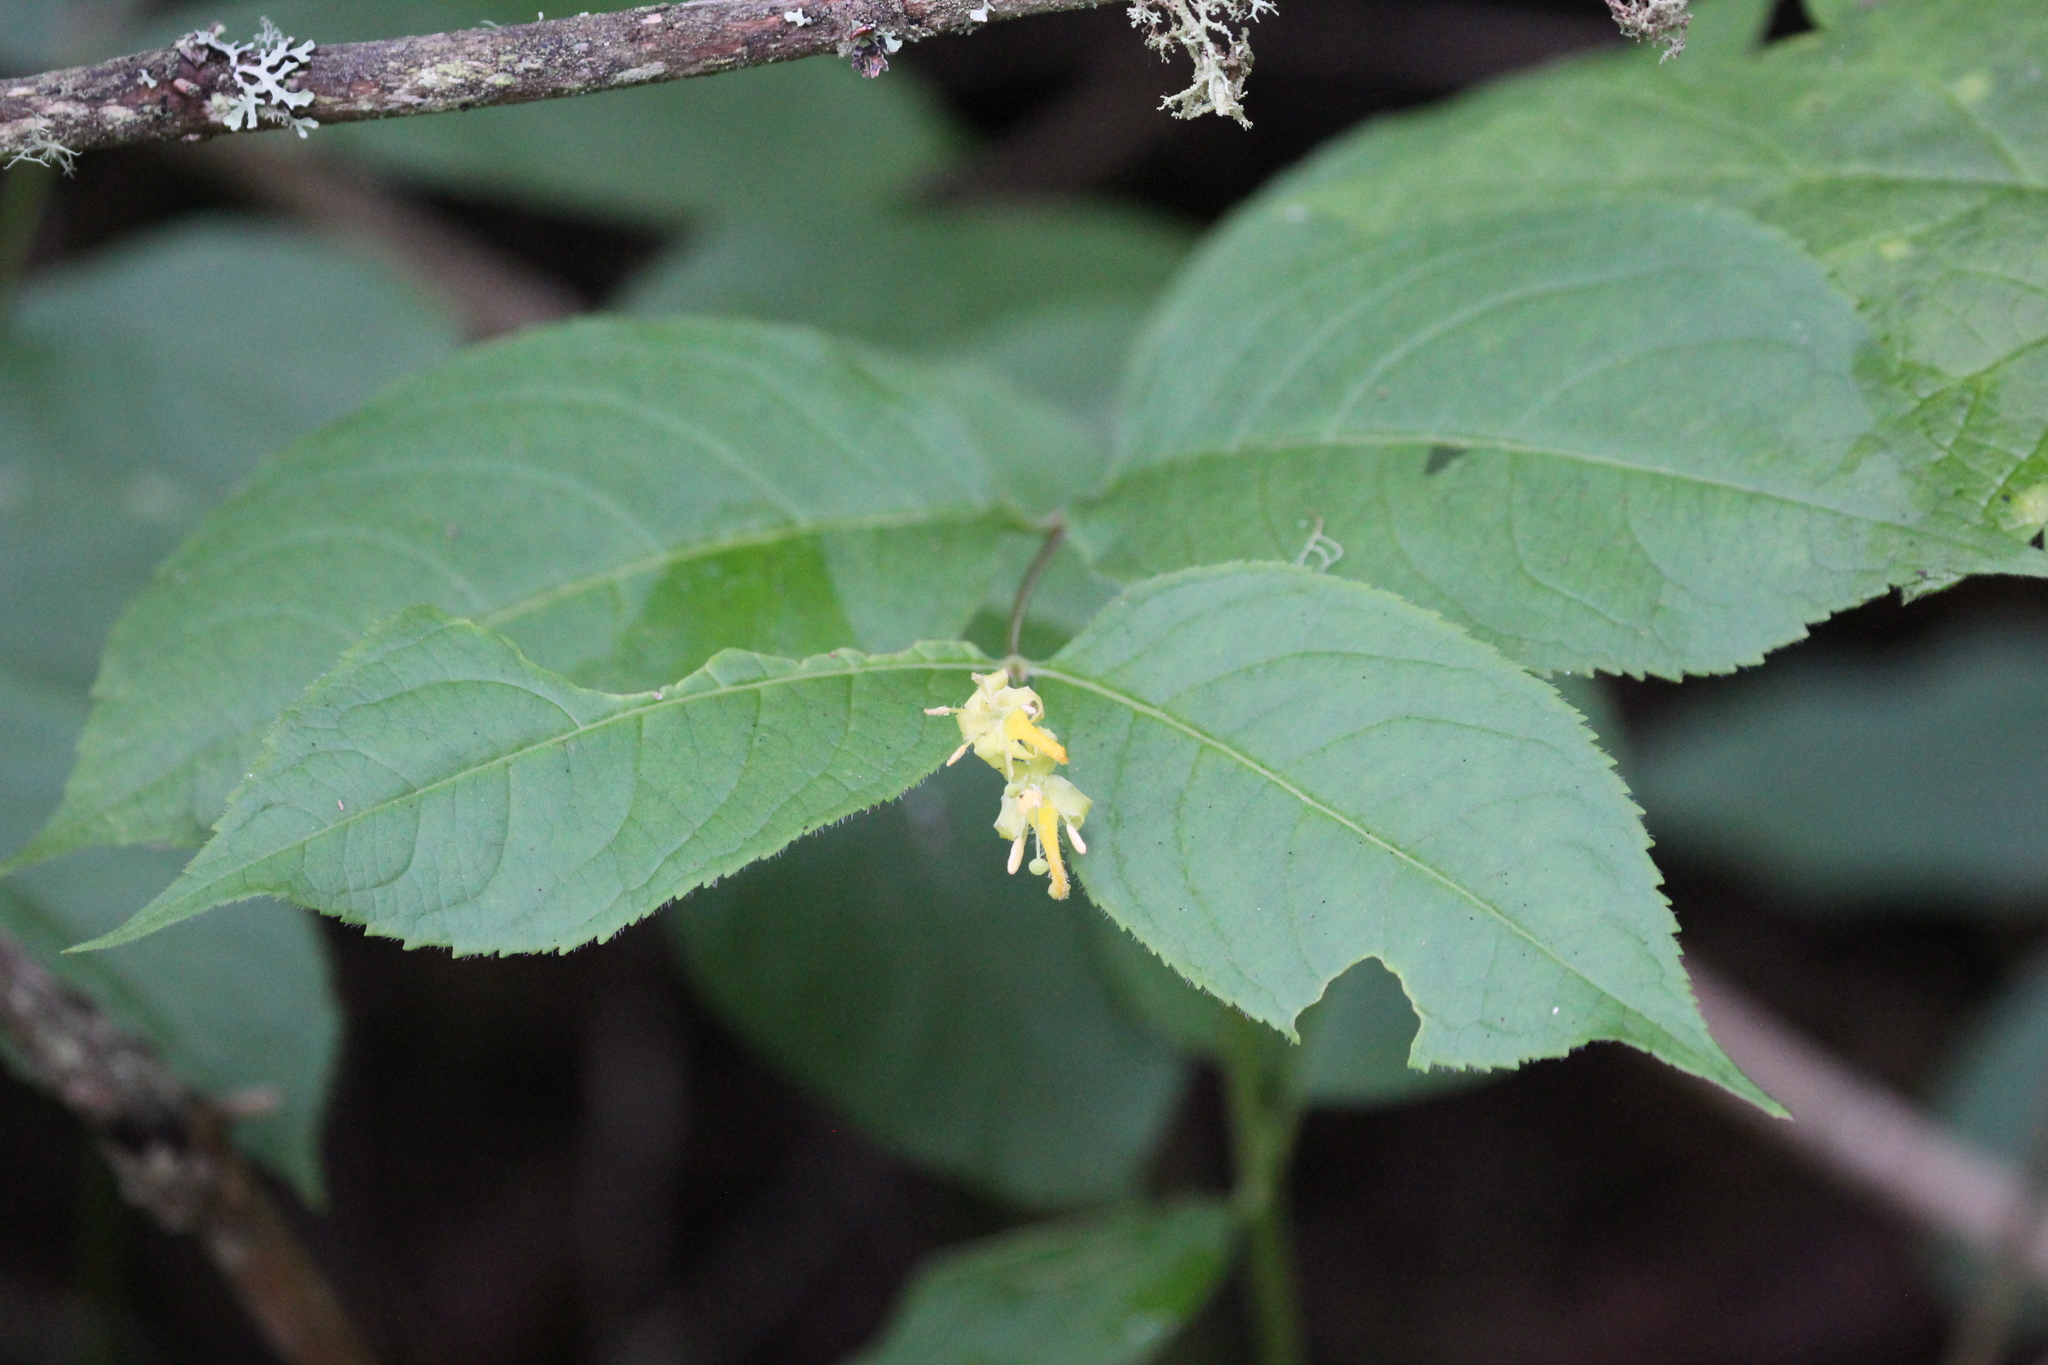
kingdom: Plantae
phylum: Tracheophyta
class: Magnoliopsida
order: Dipsacales
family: Caprifoliaceae
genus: Diervilla
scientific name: Diervilla lonicera
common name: Bush-honeysuckle
